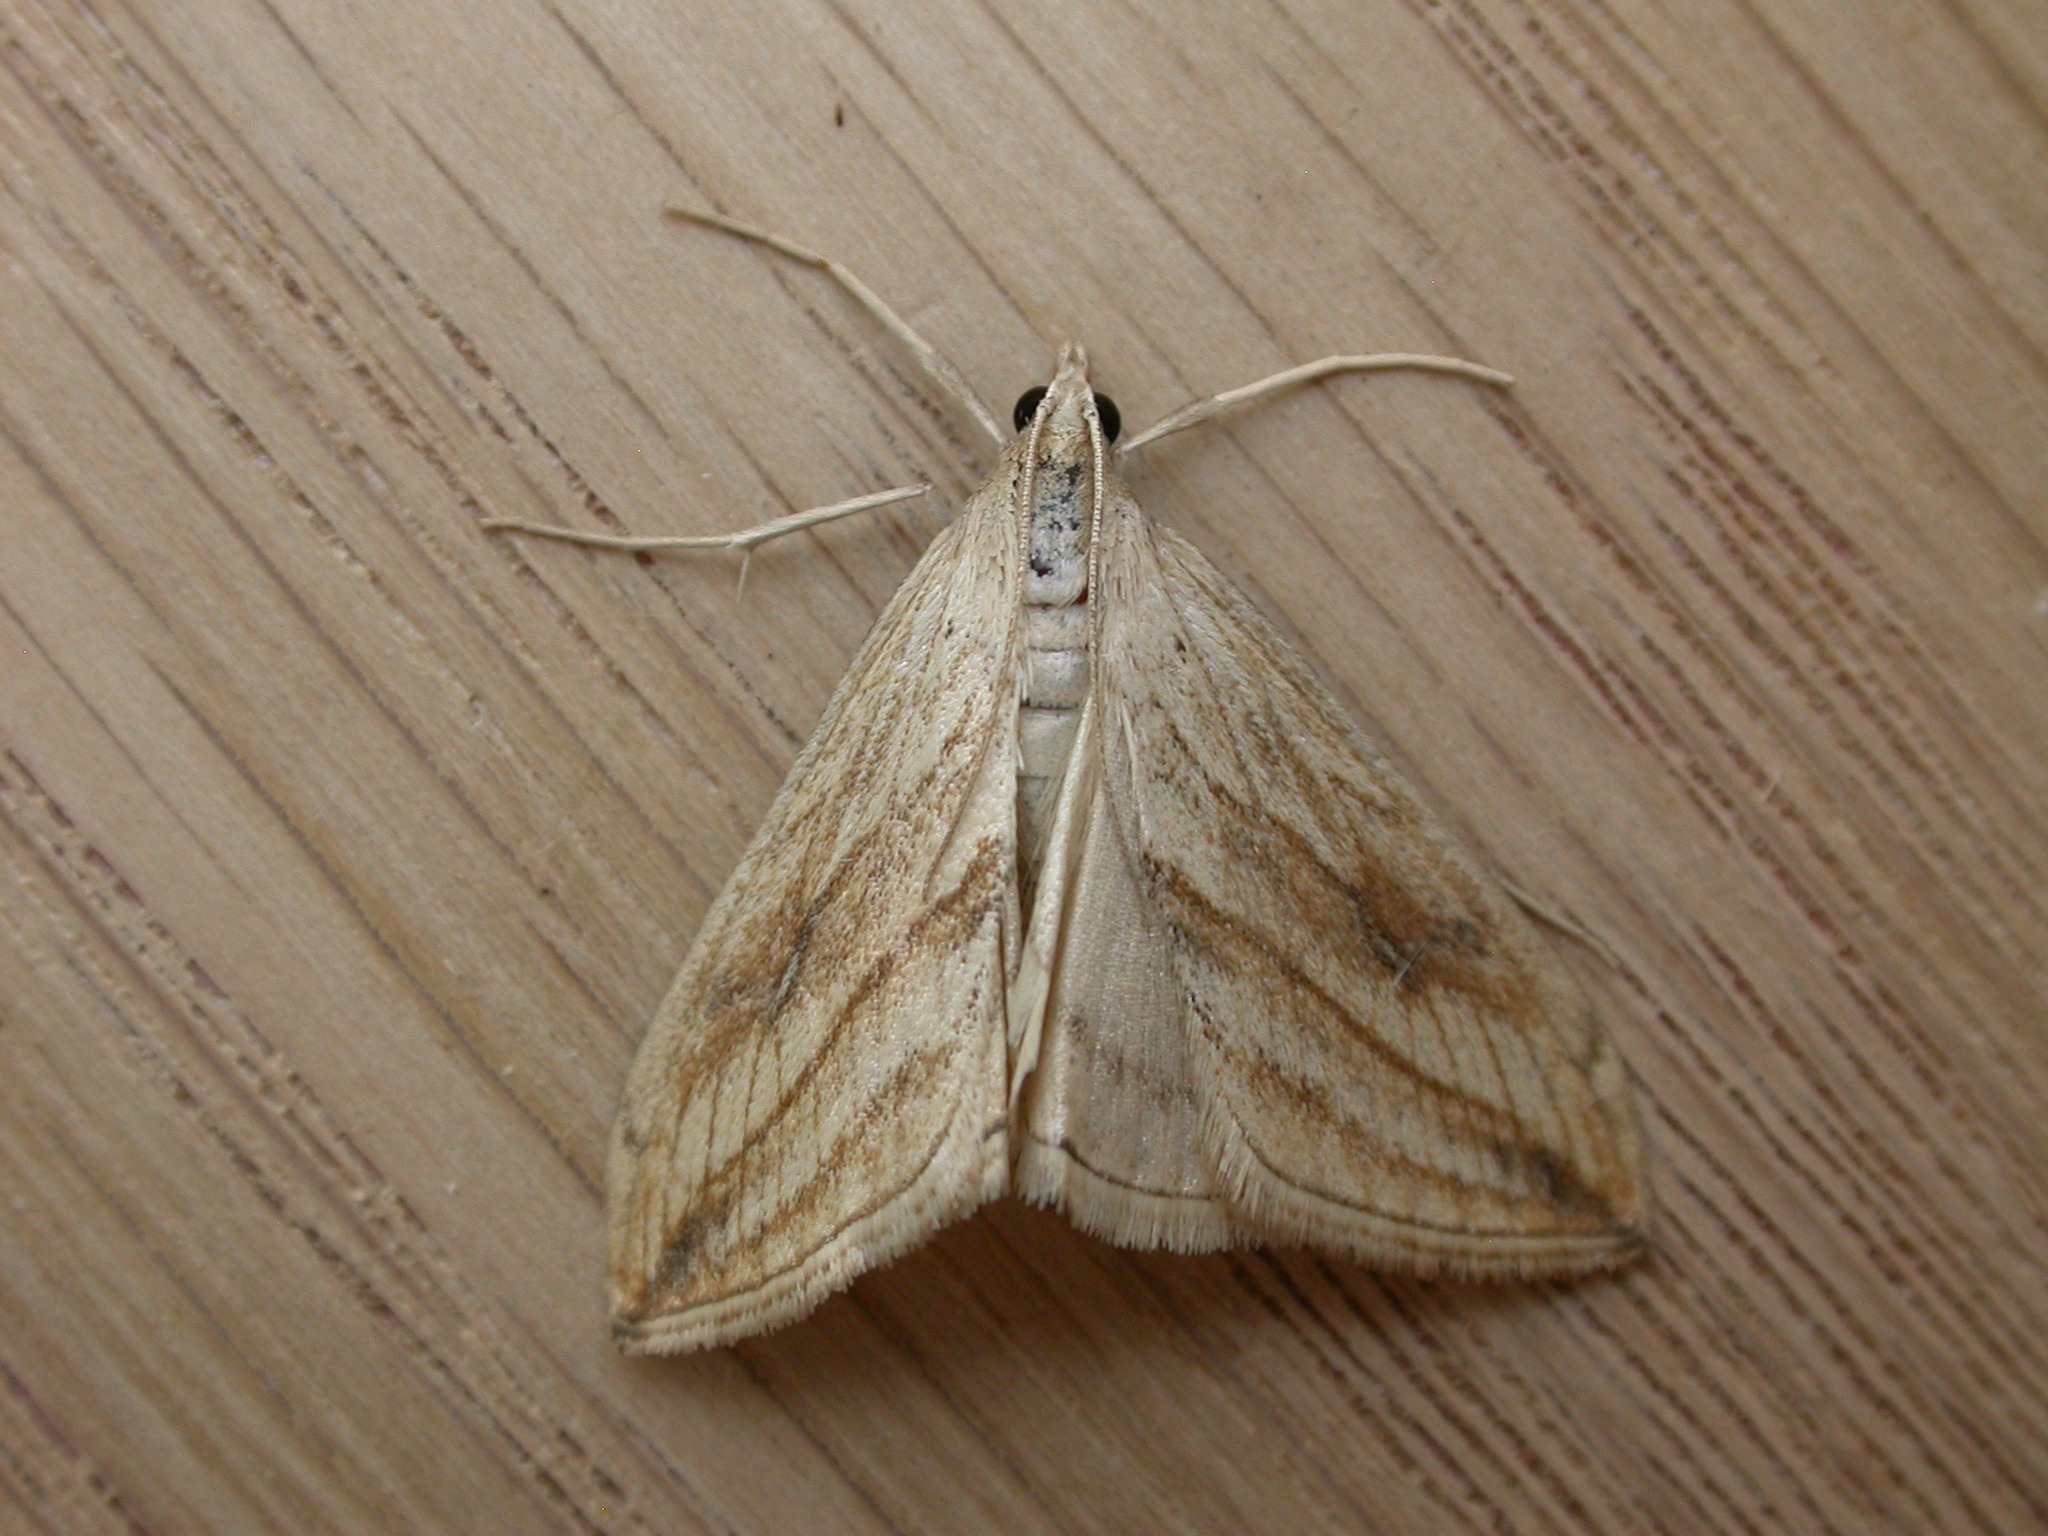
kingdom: Animalia
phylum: Arthropoda
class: Insecta
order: Lepidoptera
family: Crambidae
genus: Evergestis
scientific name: Evergestis forficalis
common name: Garden pebble
